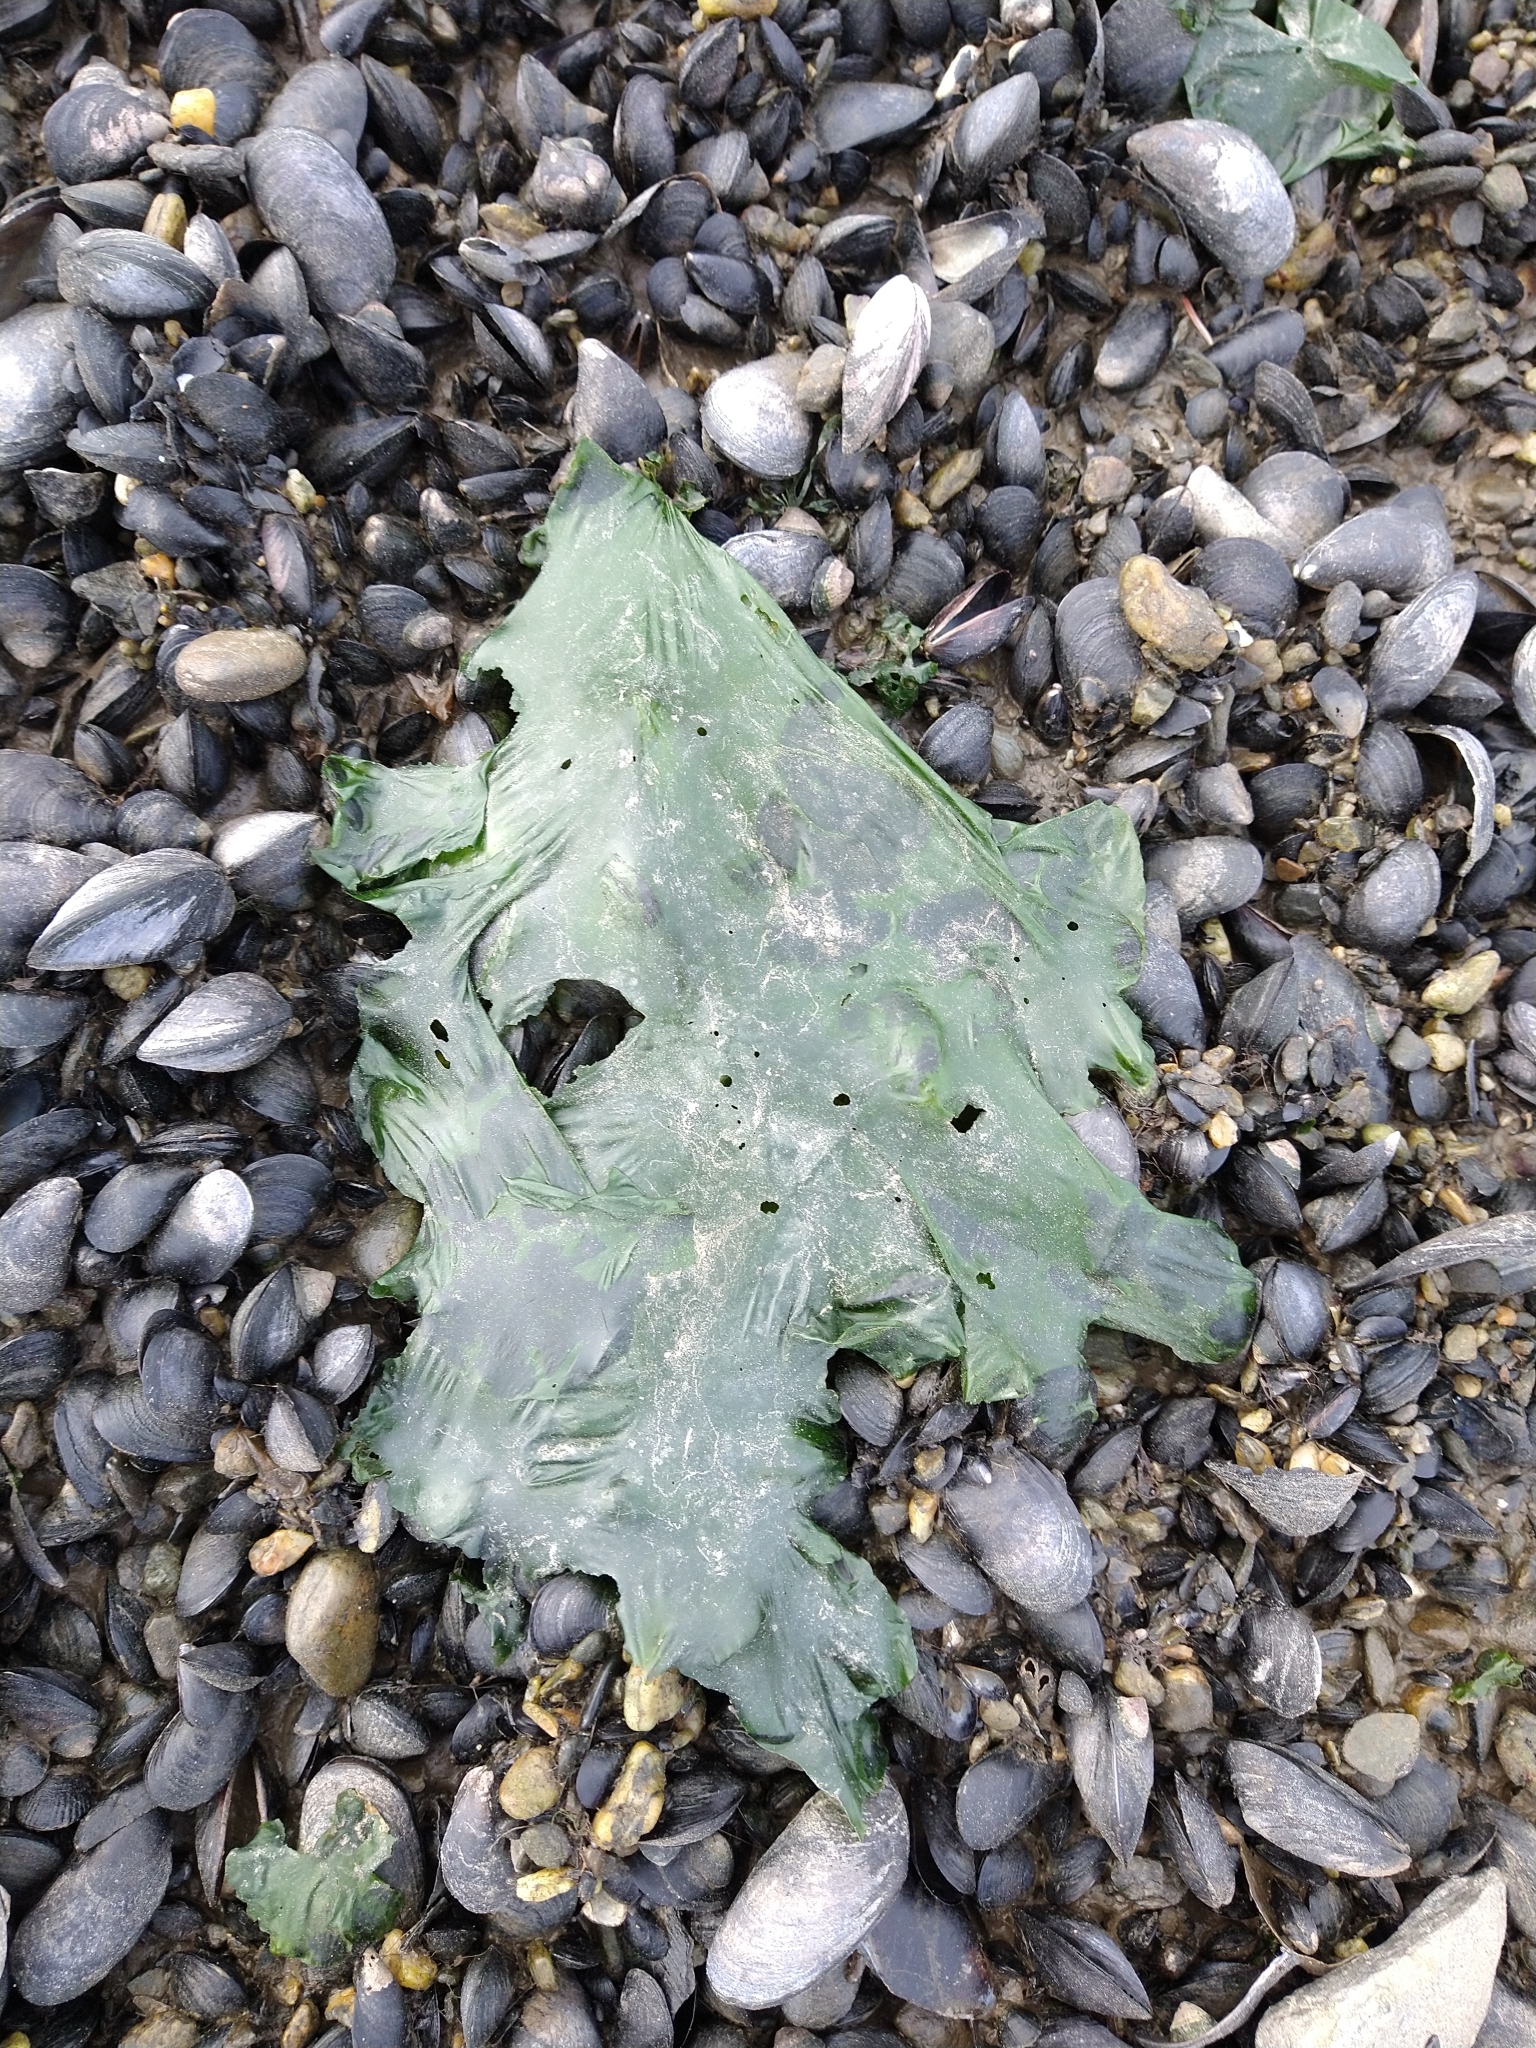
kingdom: Plantae
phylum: Chlorophyta
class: Ulvophyceae
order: Ulvales
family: Ulvaceae
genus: Ulva
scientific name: Ulva lactuca
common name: Sea lettuce
